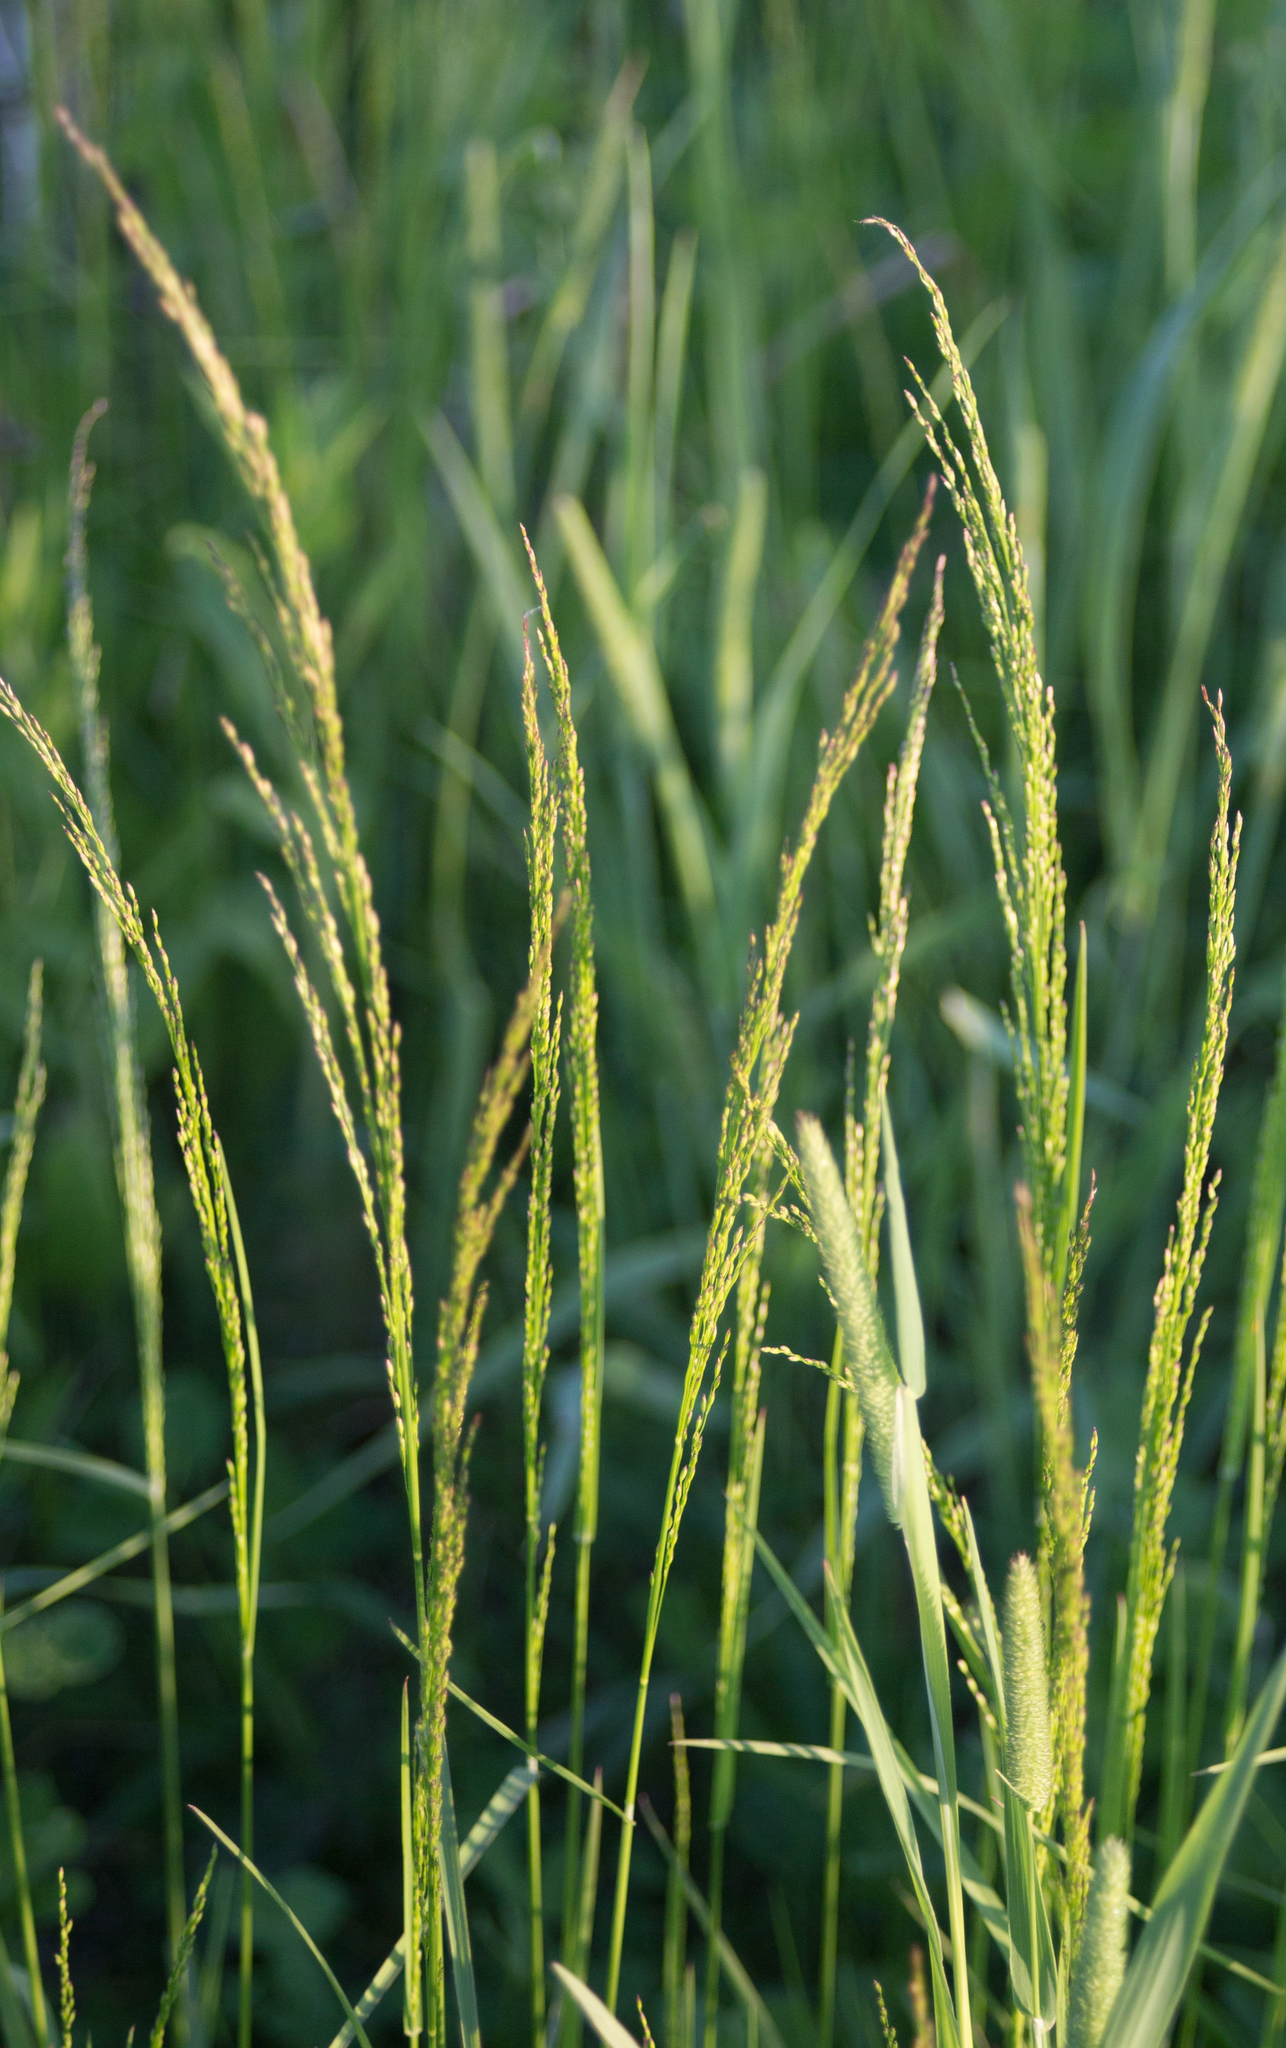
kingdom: Plantae
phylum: Tracheophyta
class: Liliopsida
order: Poales
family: Poaceae
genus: Poa
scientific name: Poa palustris
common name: Swamp meadow-grass
